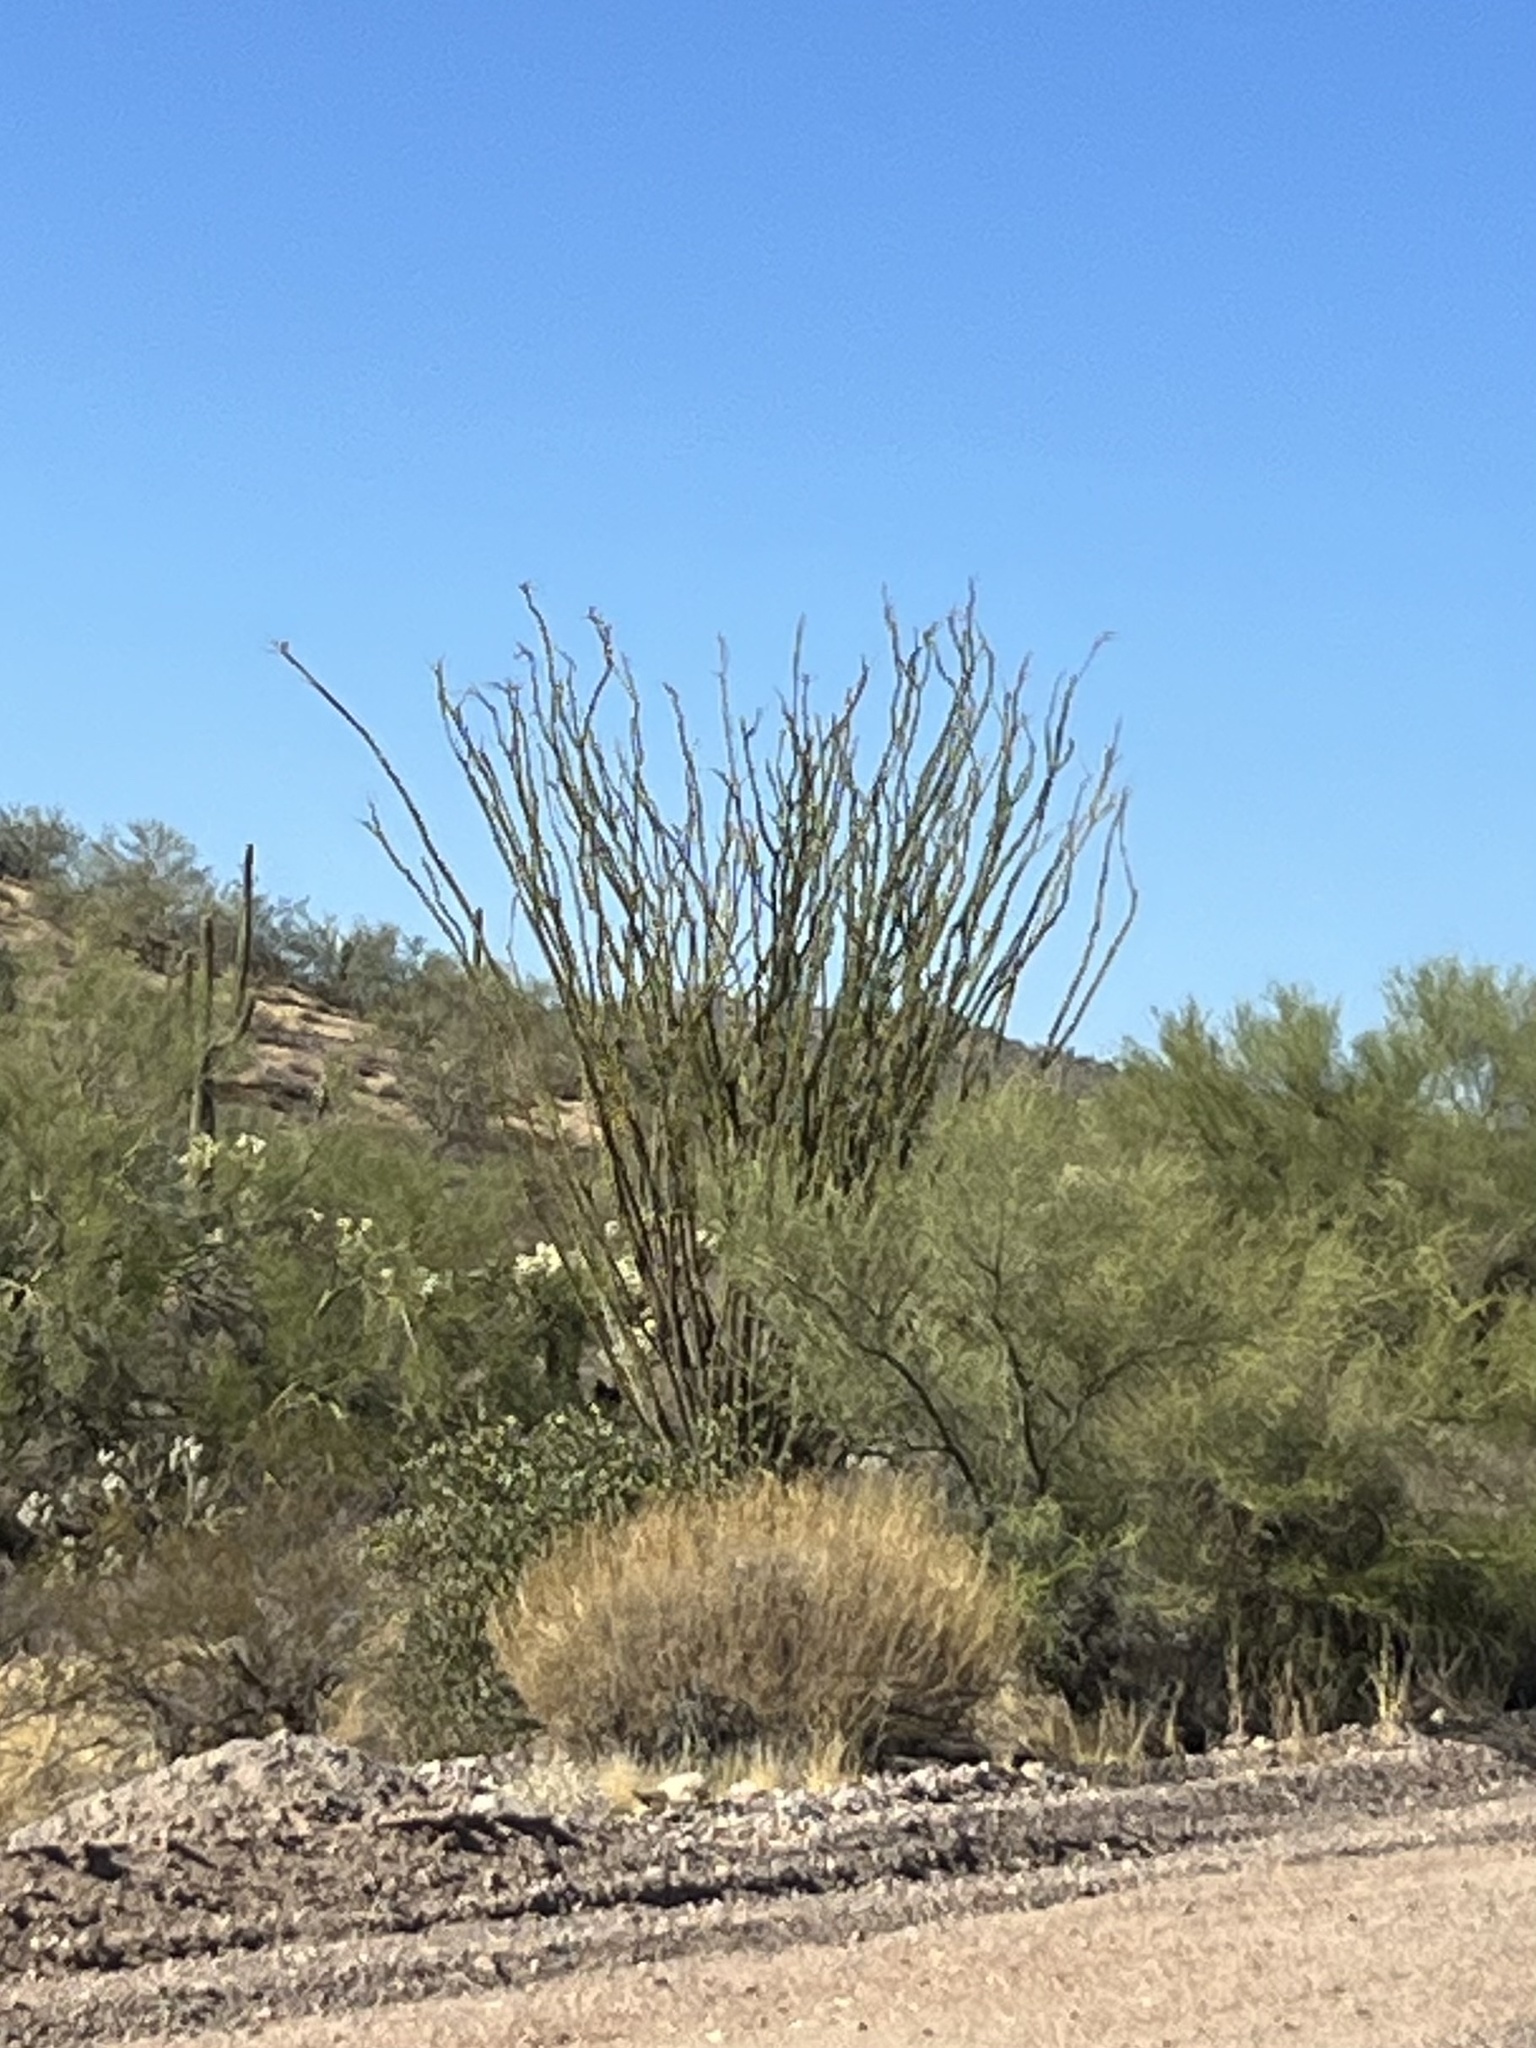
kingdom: Plantae
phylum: Tracheophyta
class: Magnoliopsida
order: Ericales
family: Fouquieriaceae
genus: Fouquieria
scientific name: Fouquieria splendens
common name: Vine-cactus
